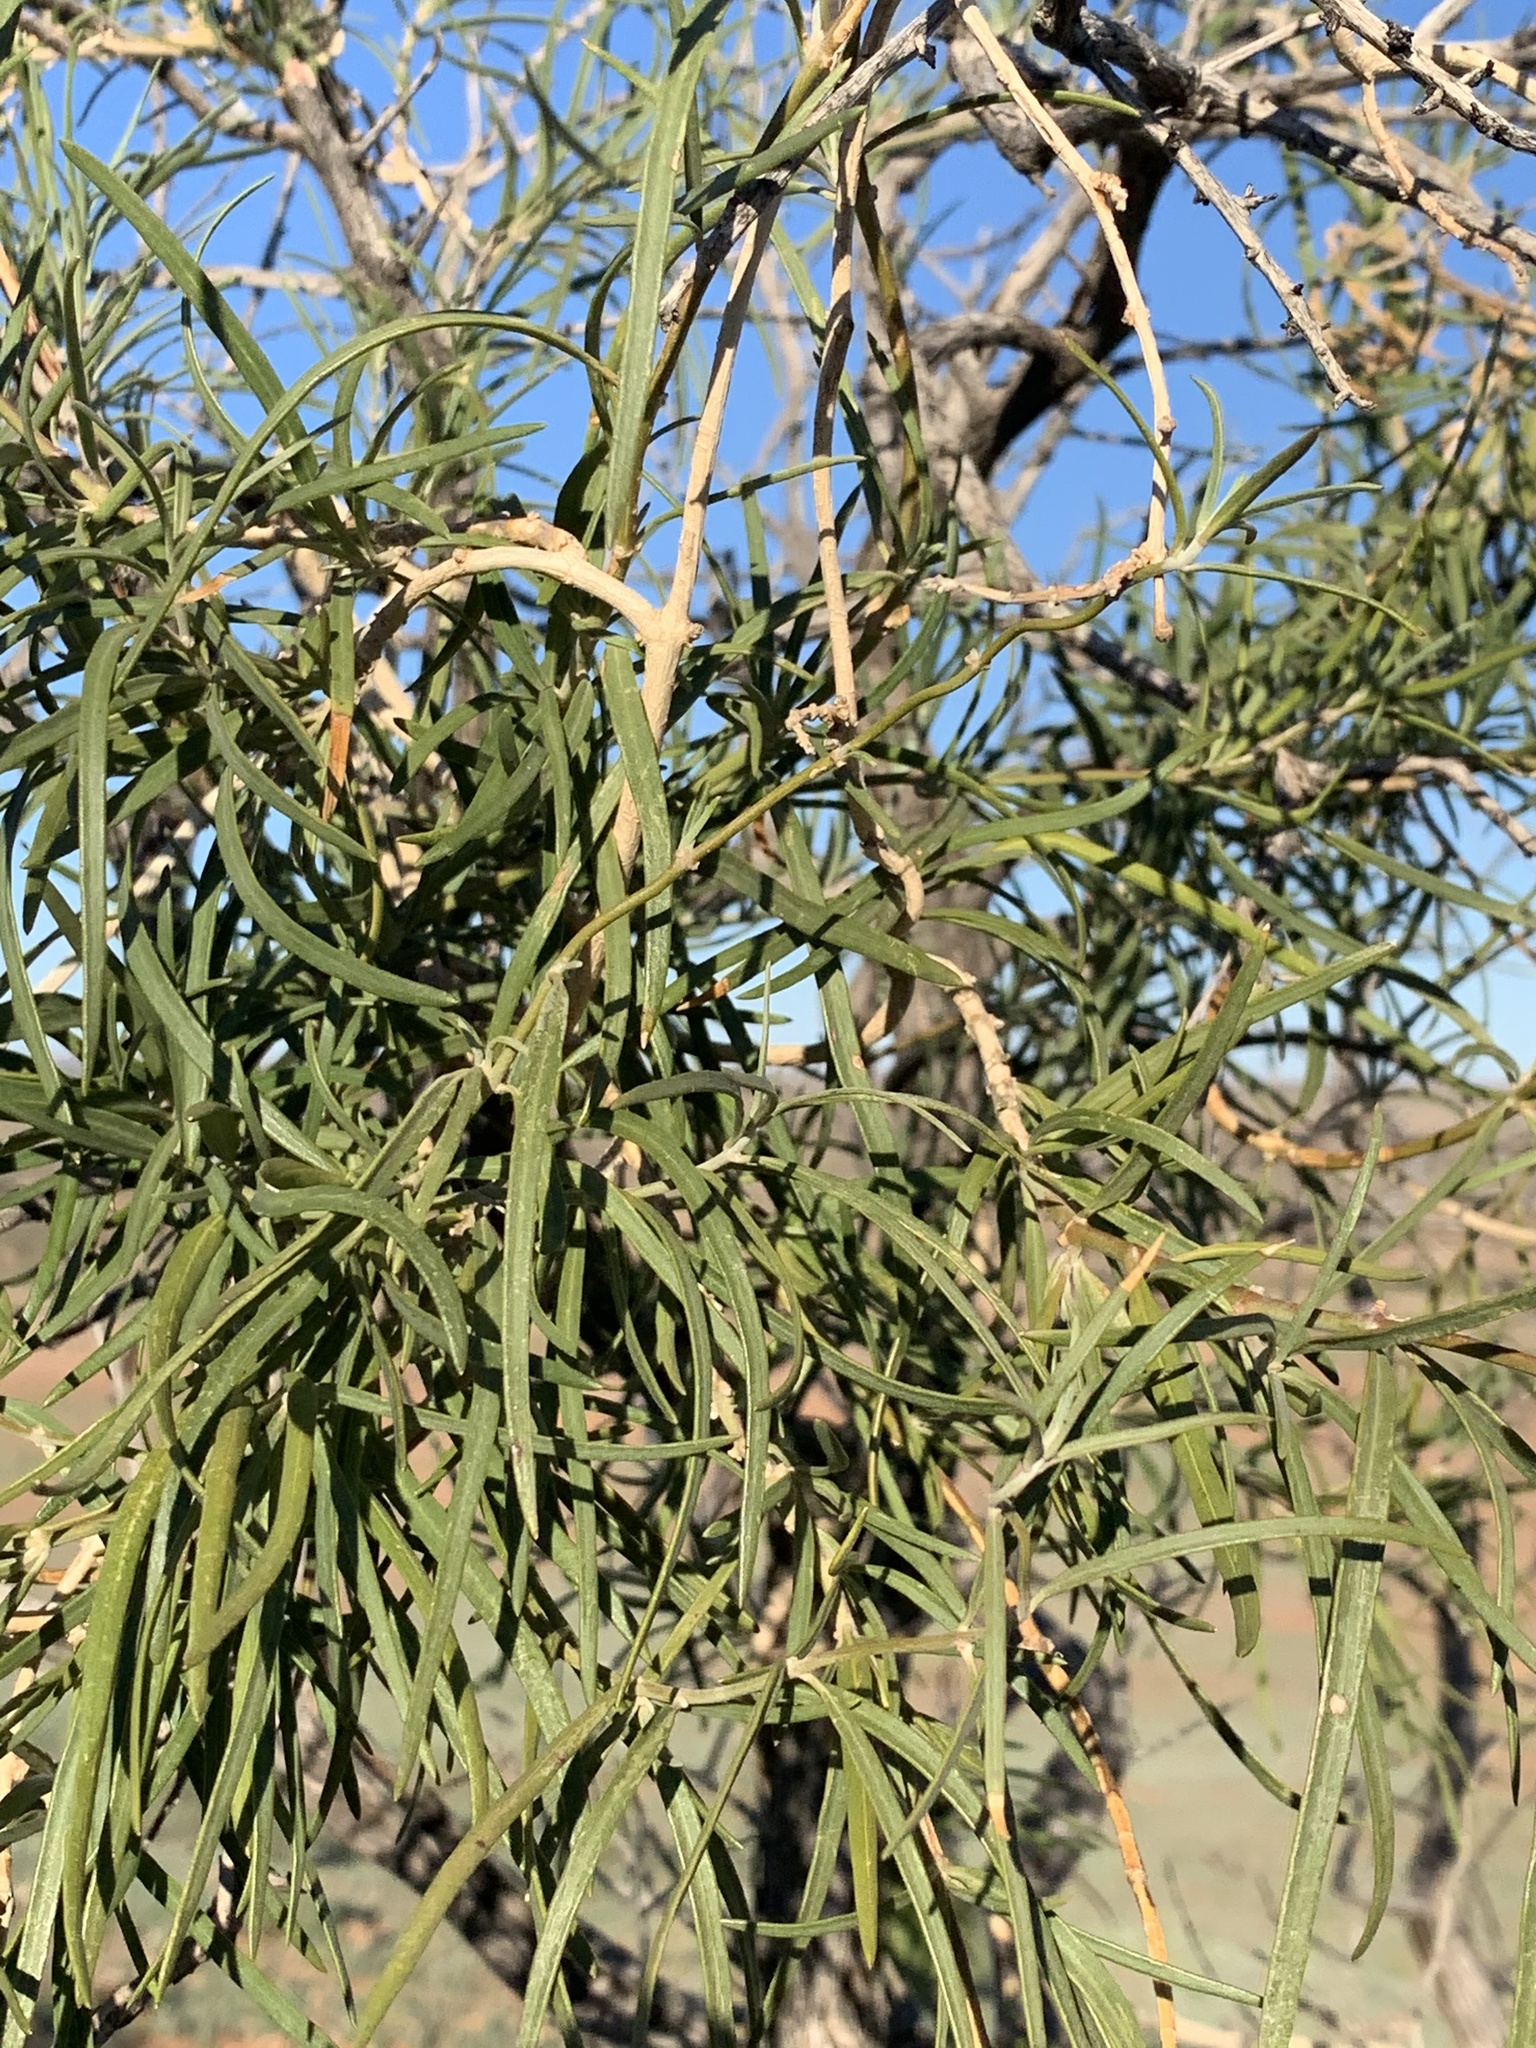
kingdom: Plantae
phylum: Tracheophyta
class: Magnoliopsida
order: Gentianales
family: Apocynaceae
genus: Leichhardtia
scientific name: Leichhardtia australis
